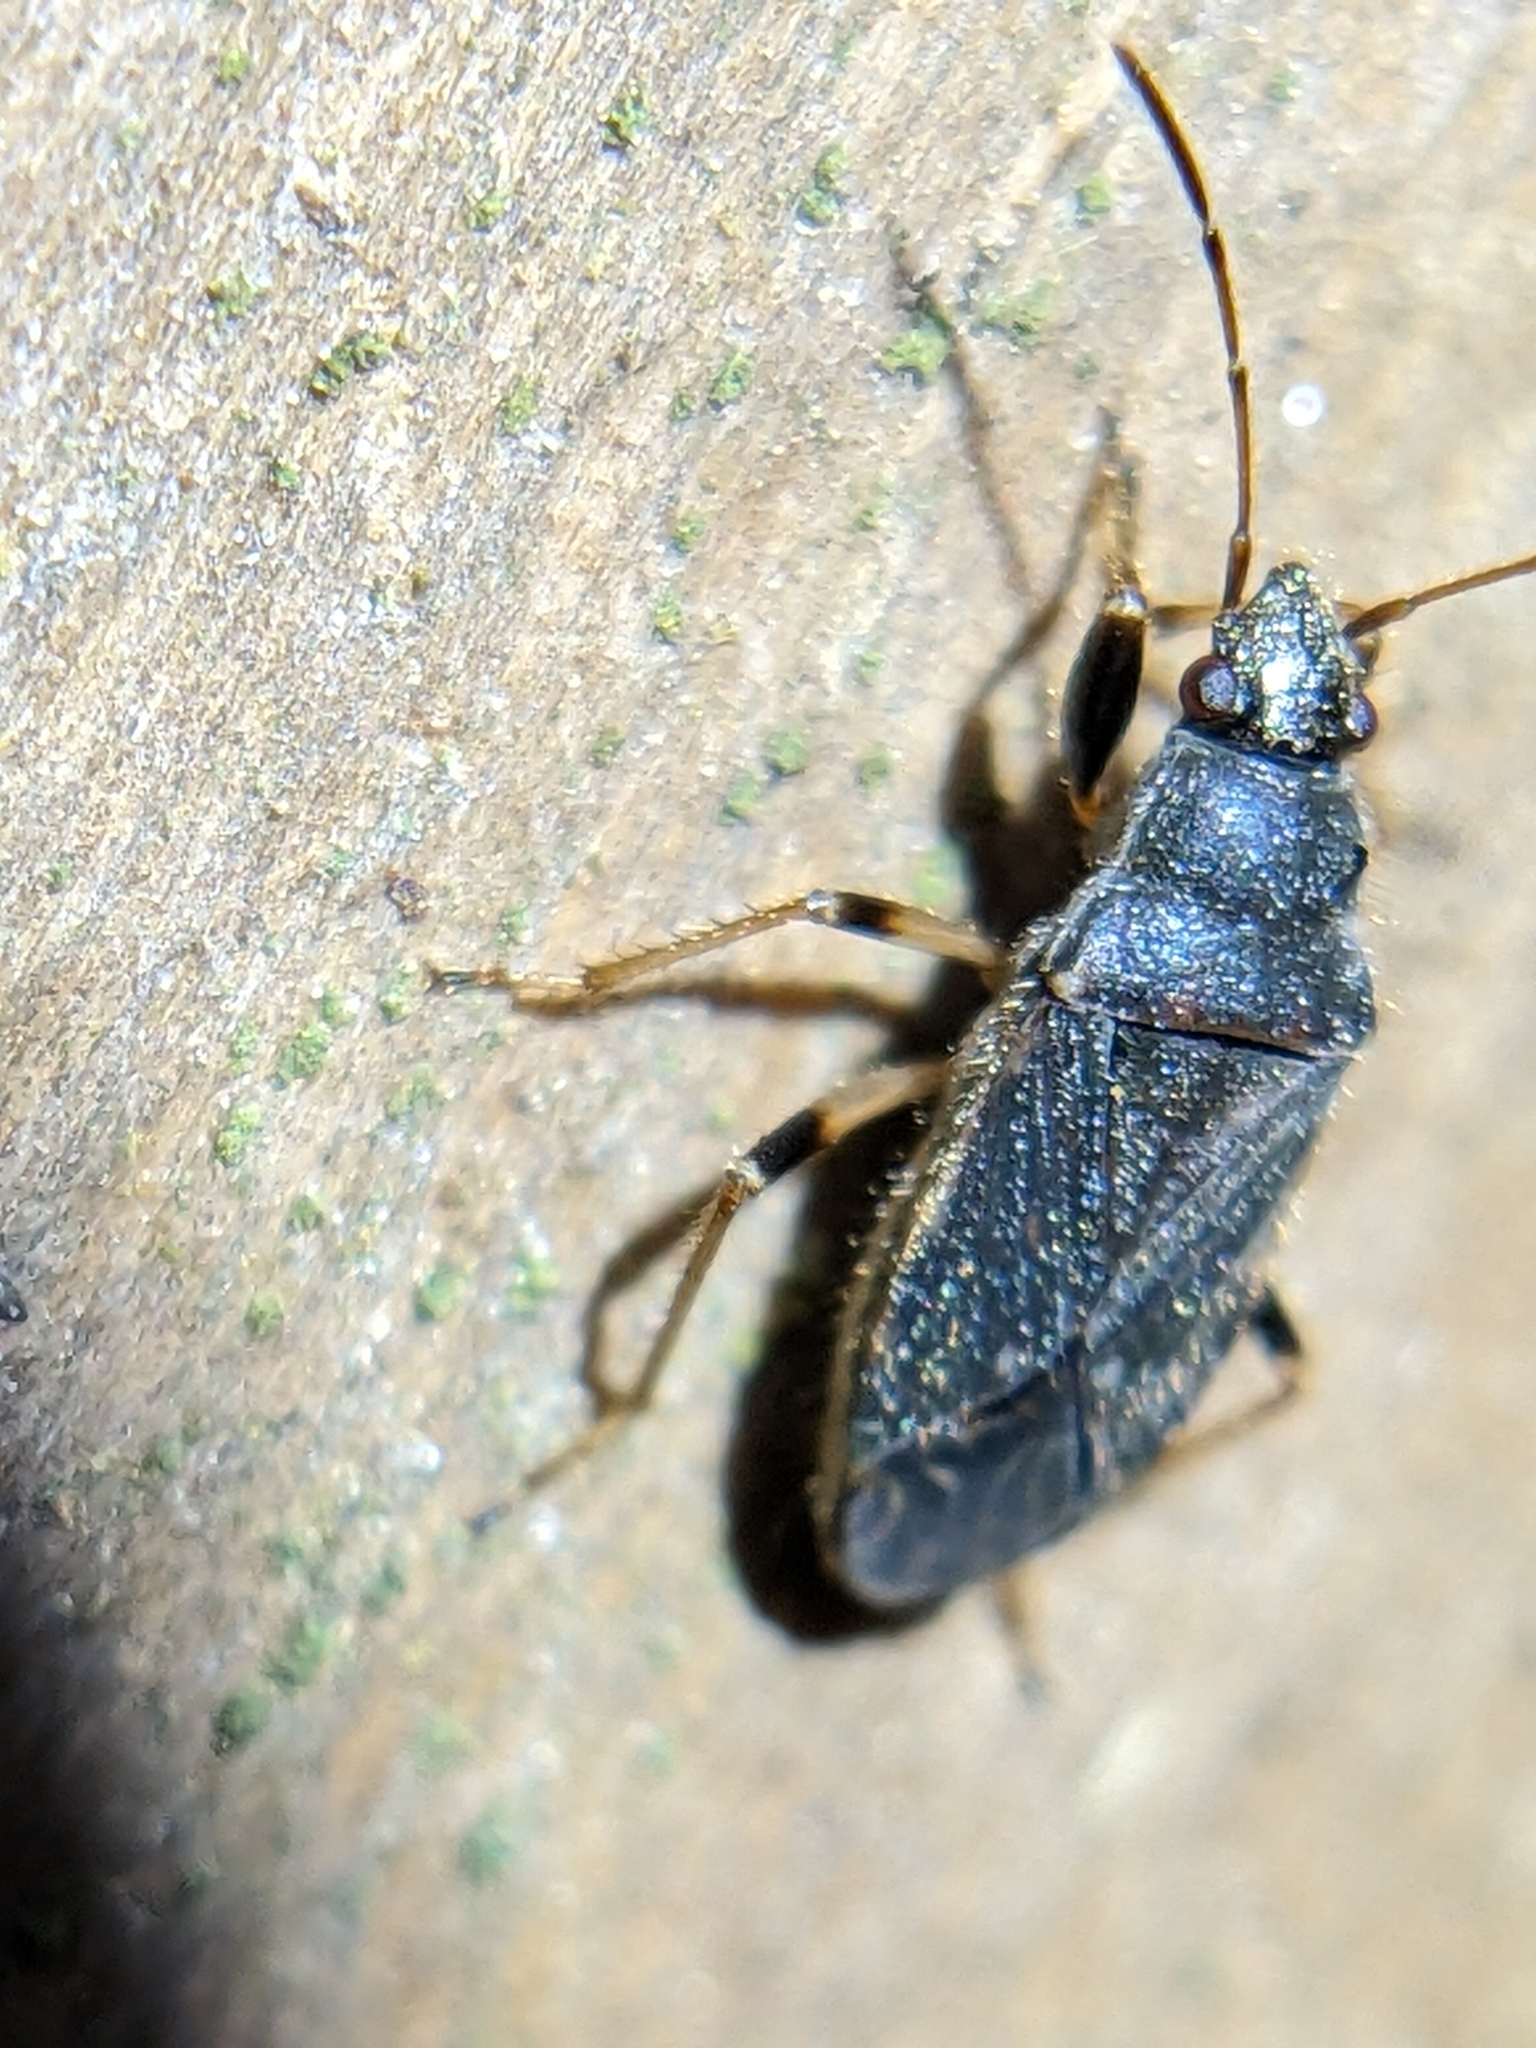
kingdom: Animalia
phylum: Arthropoda
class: Insecta
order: Hemiptera
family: Rhyparochromidae
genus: Perigenes
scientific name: Perigenes similis
